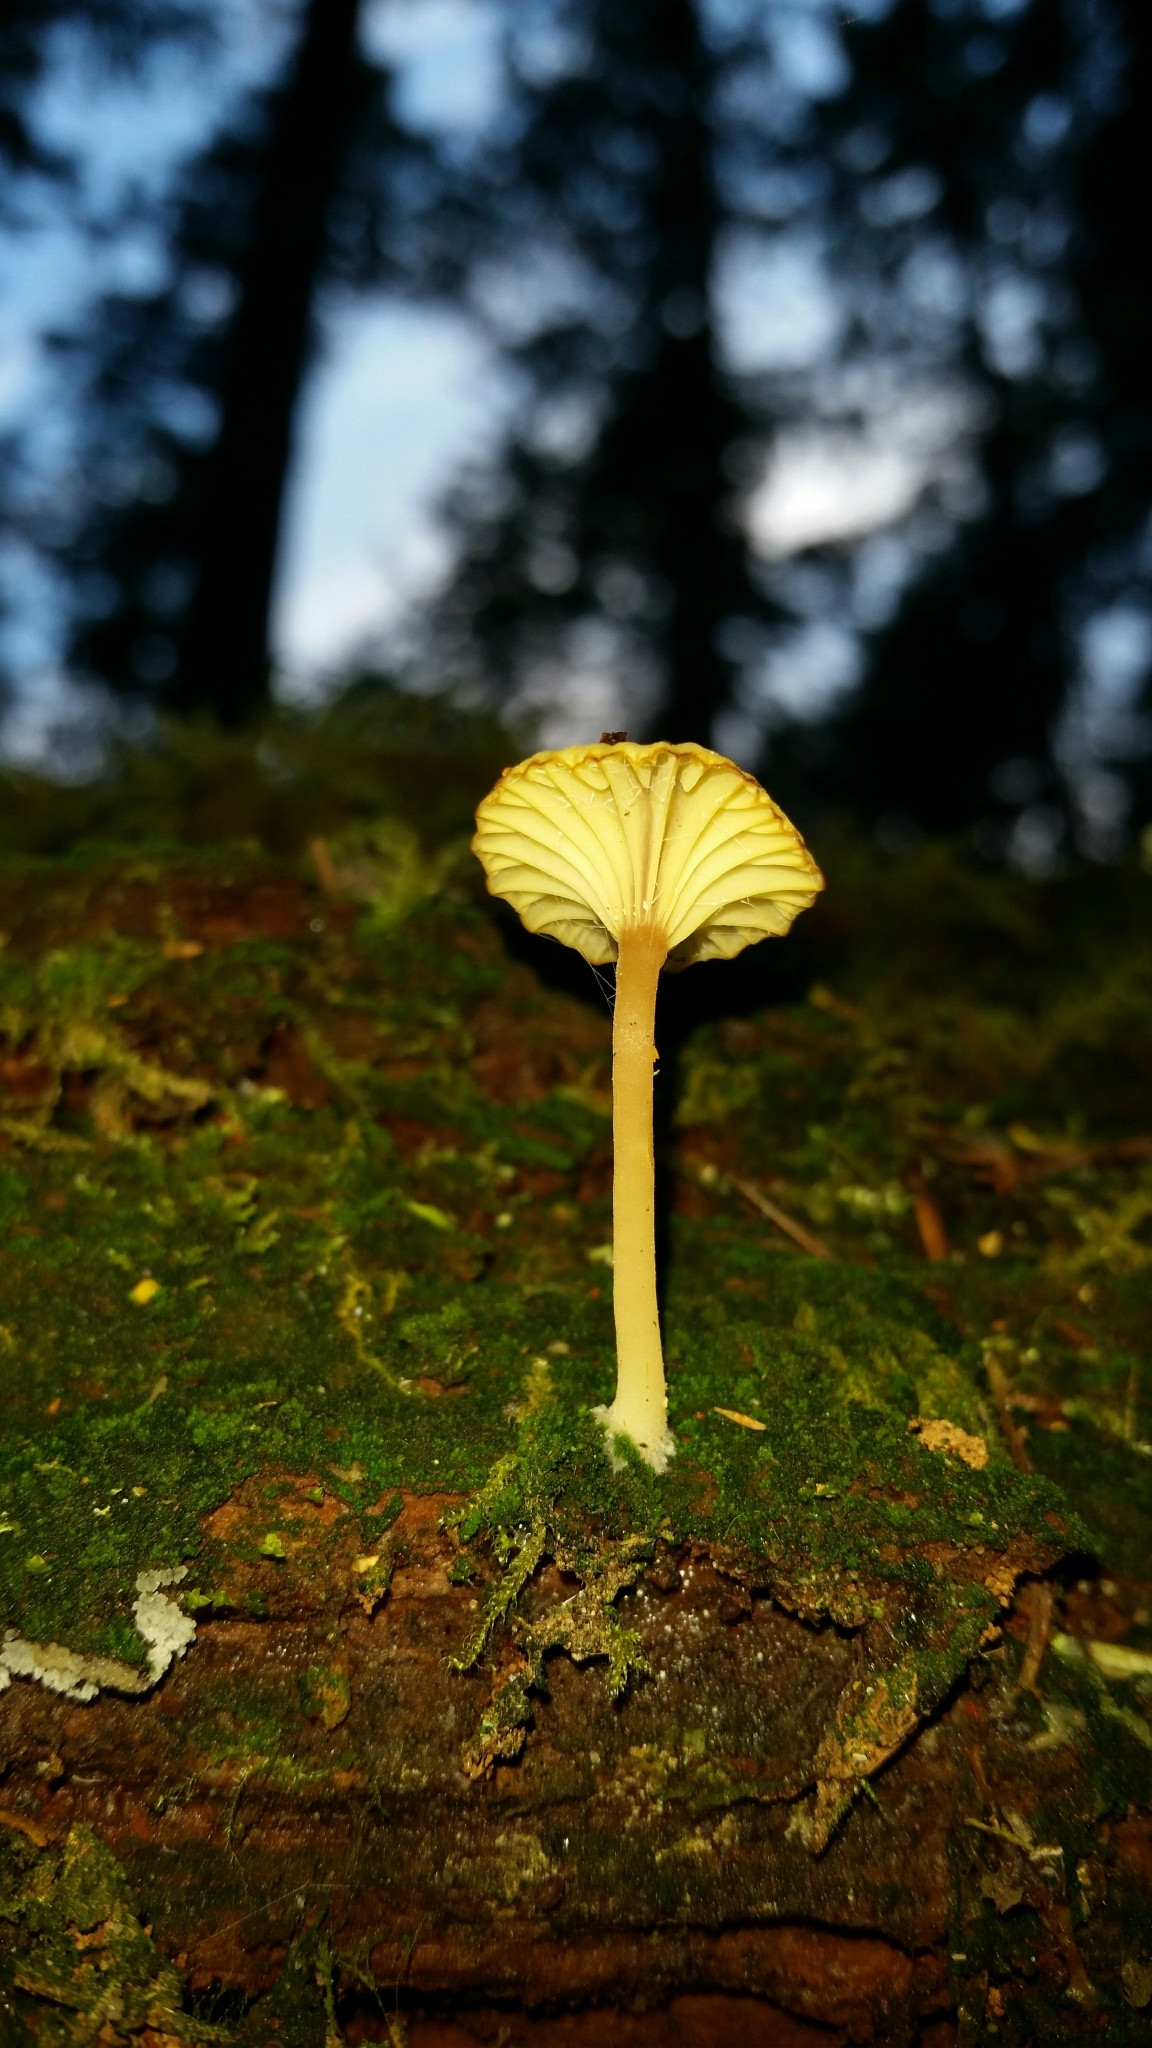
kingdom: Fungi
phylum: Basidiomycota
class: Agaricomycetes
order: Agaricales
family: Hygrophoraceae
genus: Lichenomphalia
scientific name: Lichenomphalia
